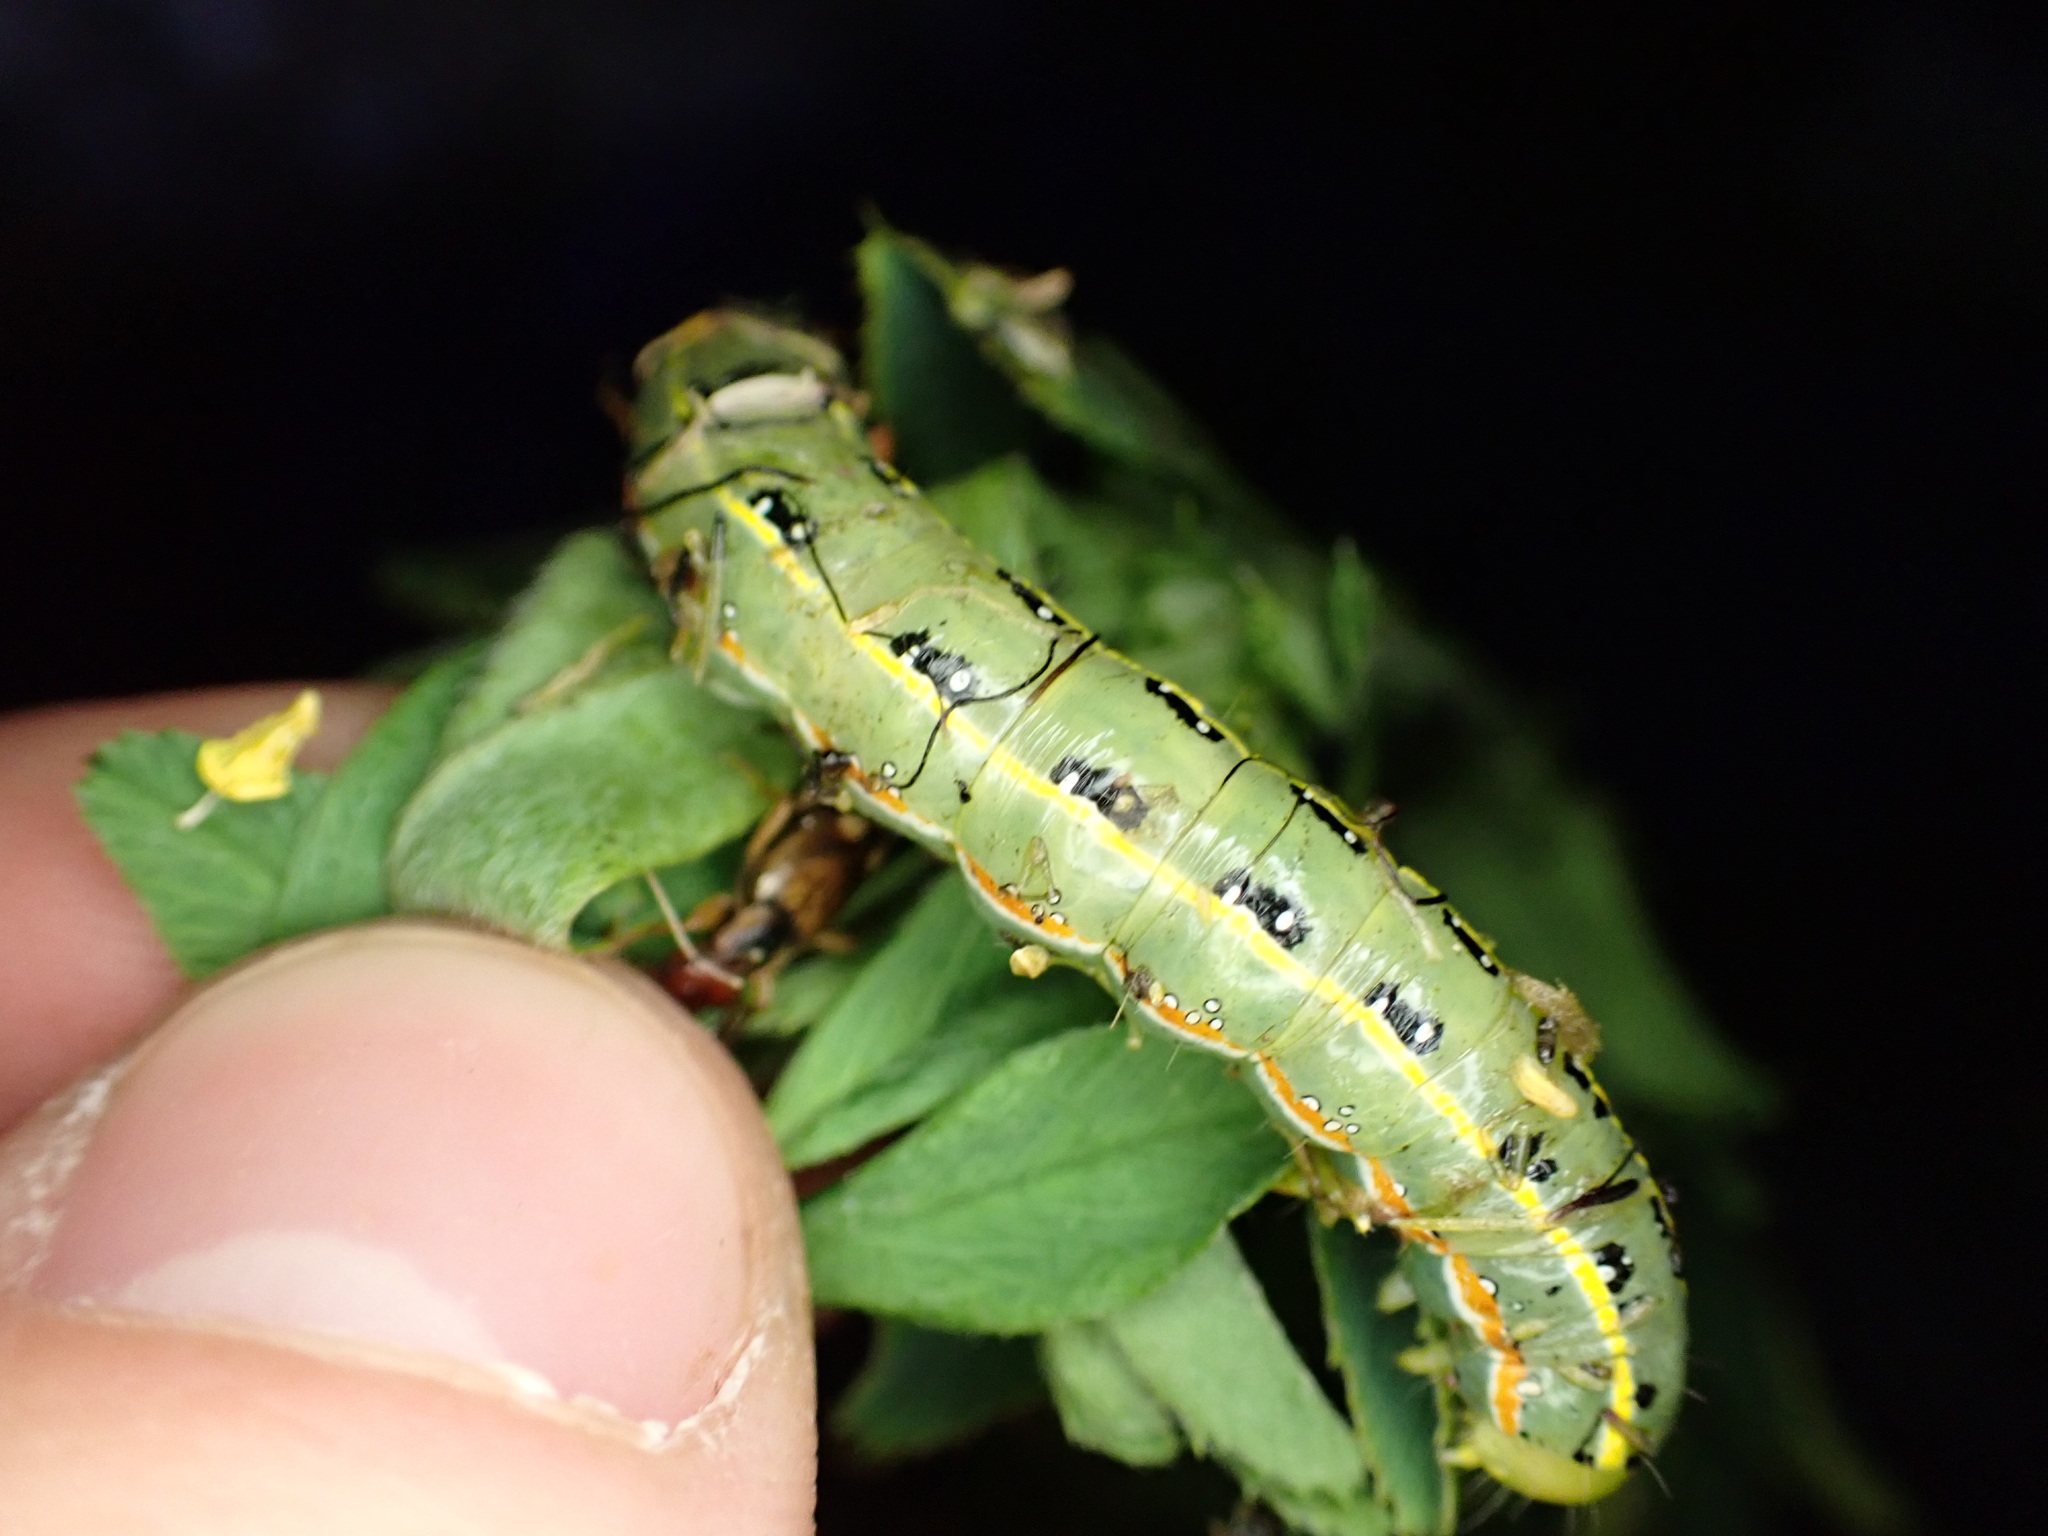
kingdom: Animalia
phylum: Arthropoda
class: Insecta
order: Lepidoptera
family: Noctuidae
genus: Xylena
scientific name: Xylena exsoleta
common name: Sword-grass
